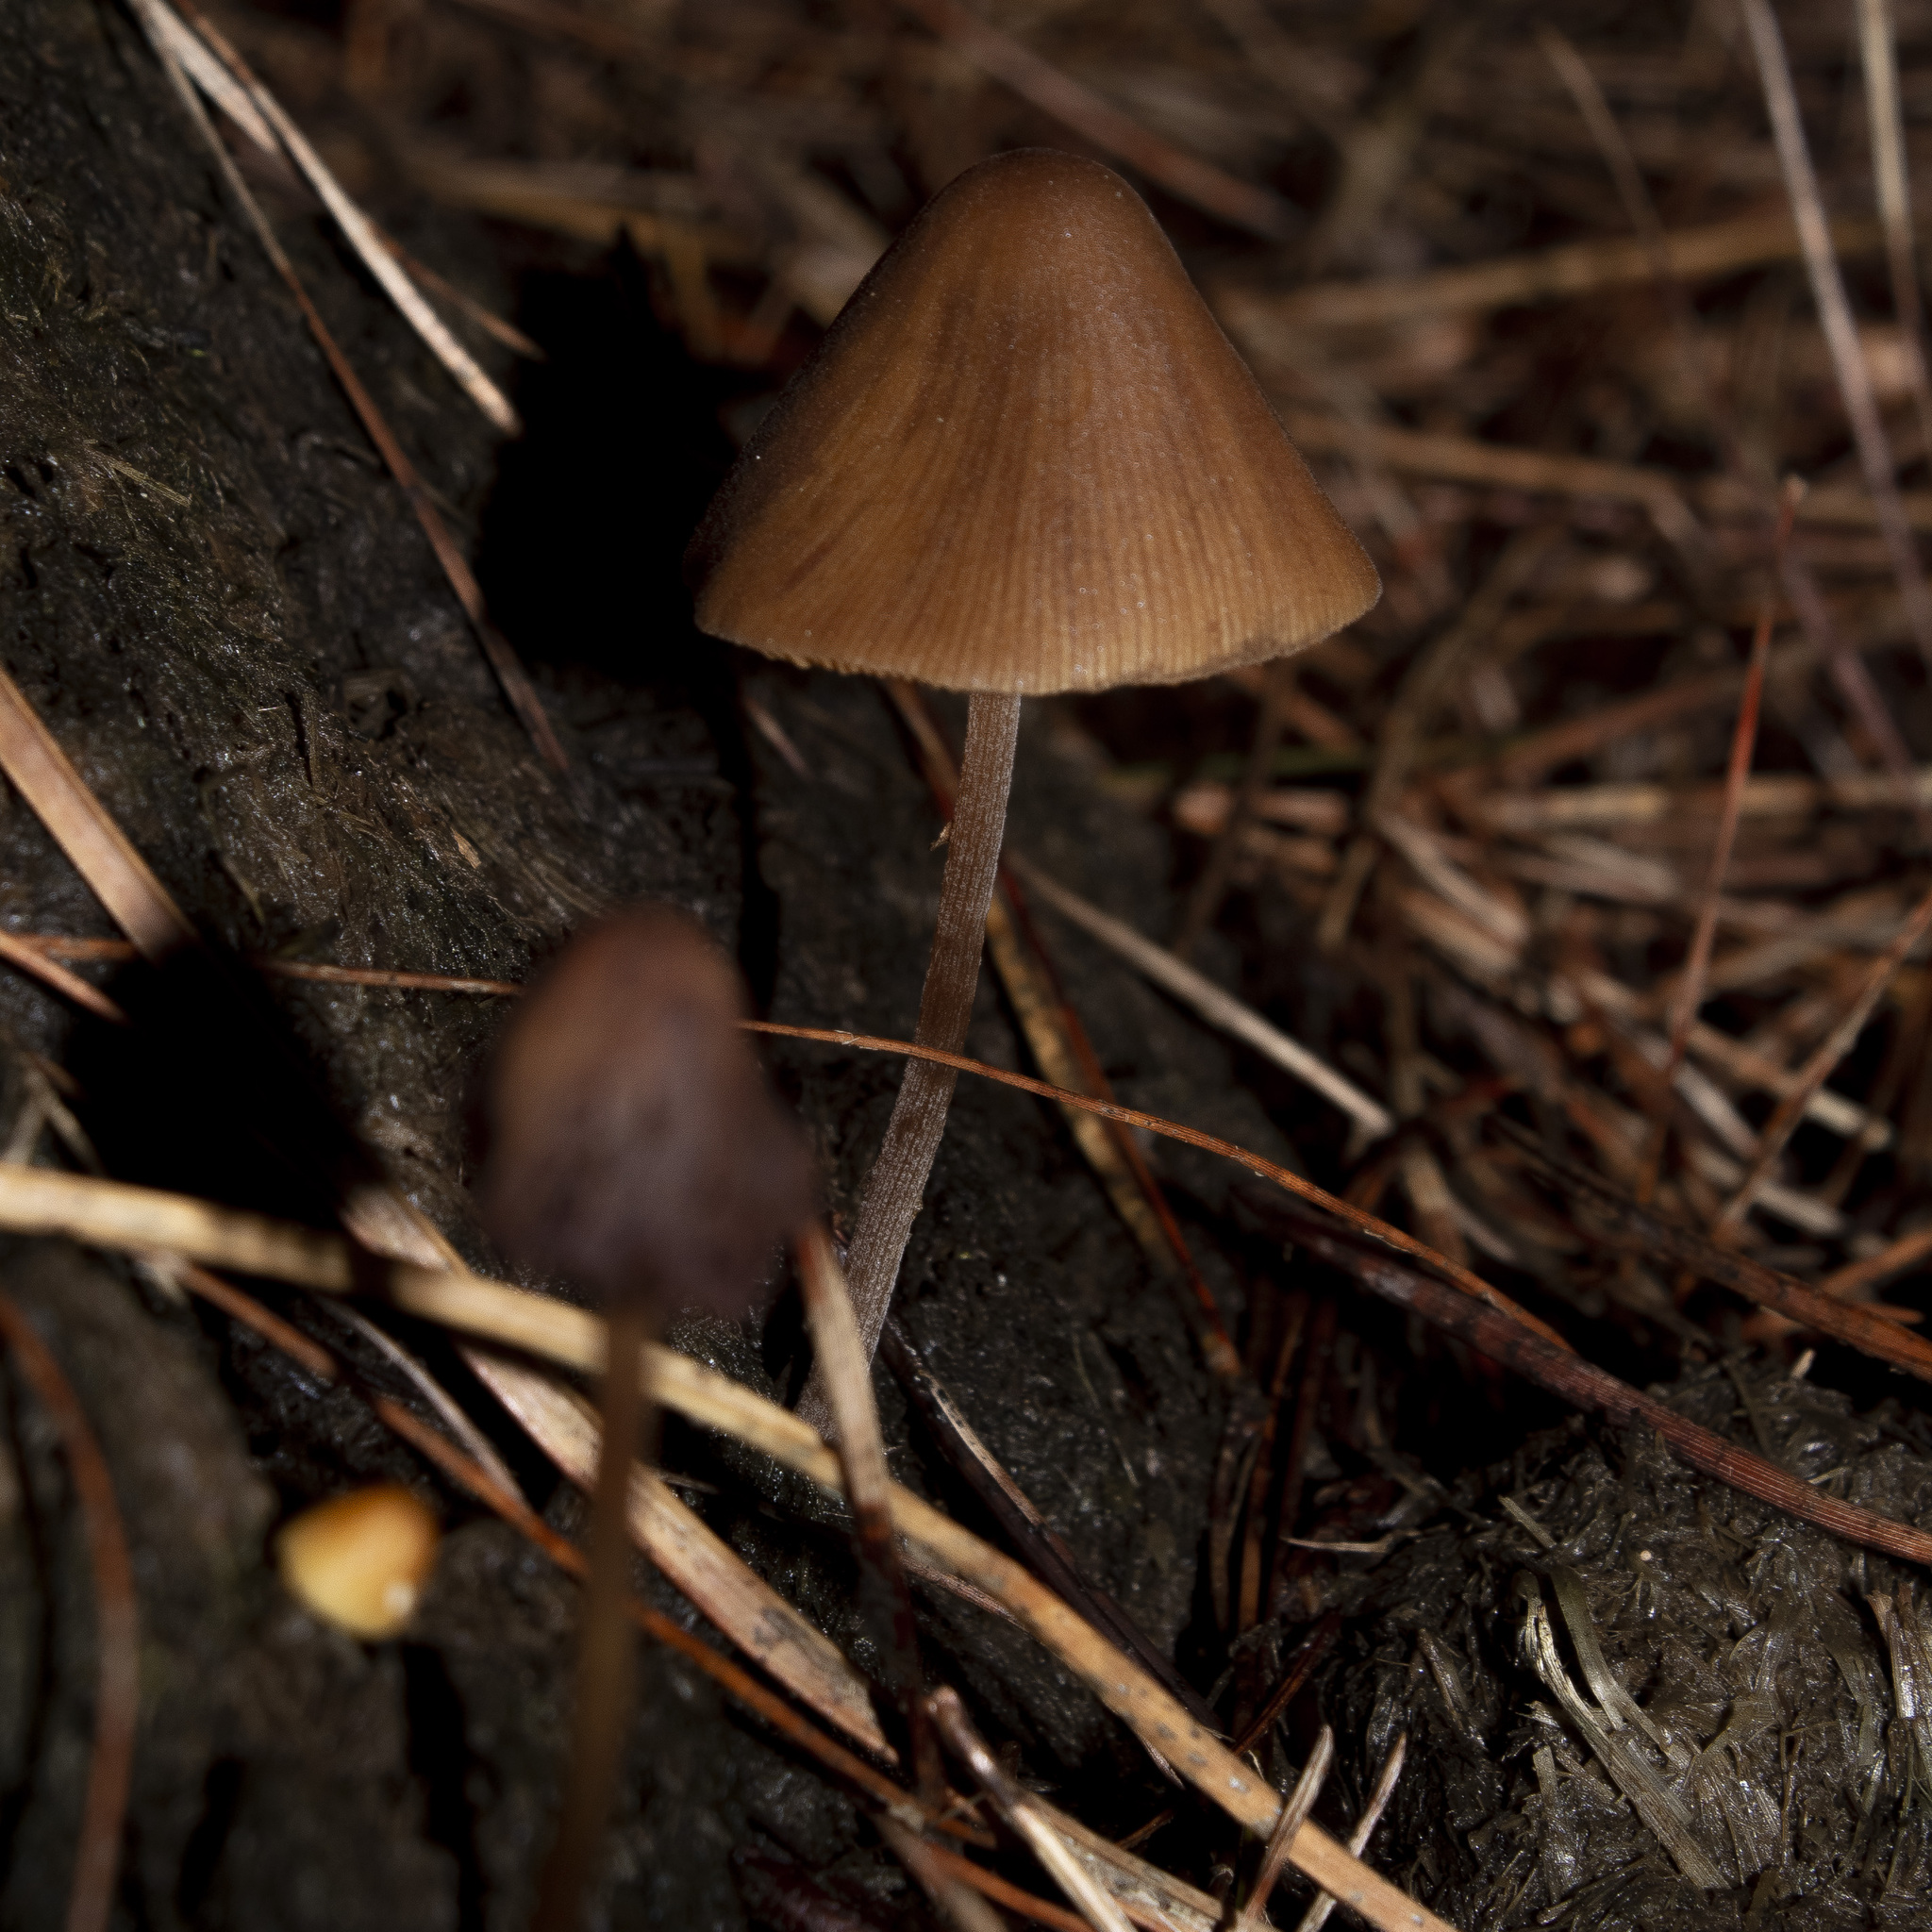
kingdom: Fungi
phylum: Basidiomycota
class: Agaricomycetes
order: Agaricales
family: Bolbitiaceae
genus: Conocybe
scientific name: Conocybe tenera
